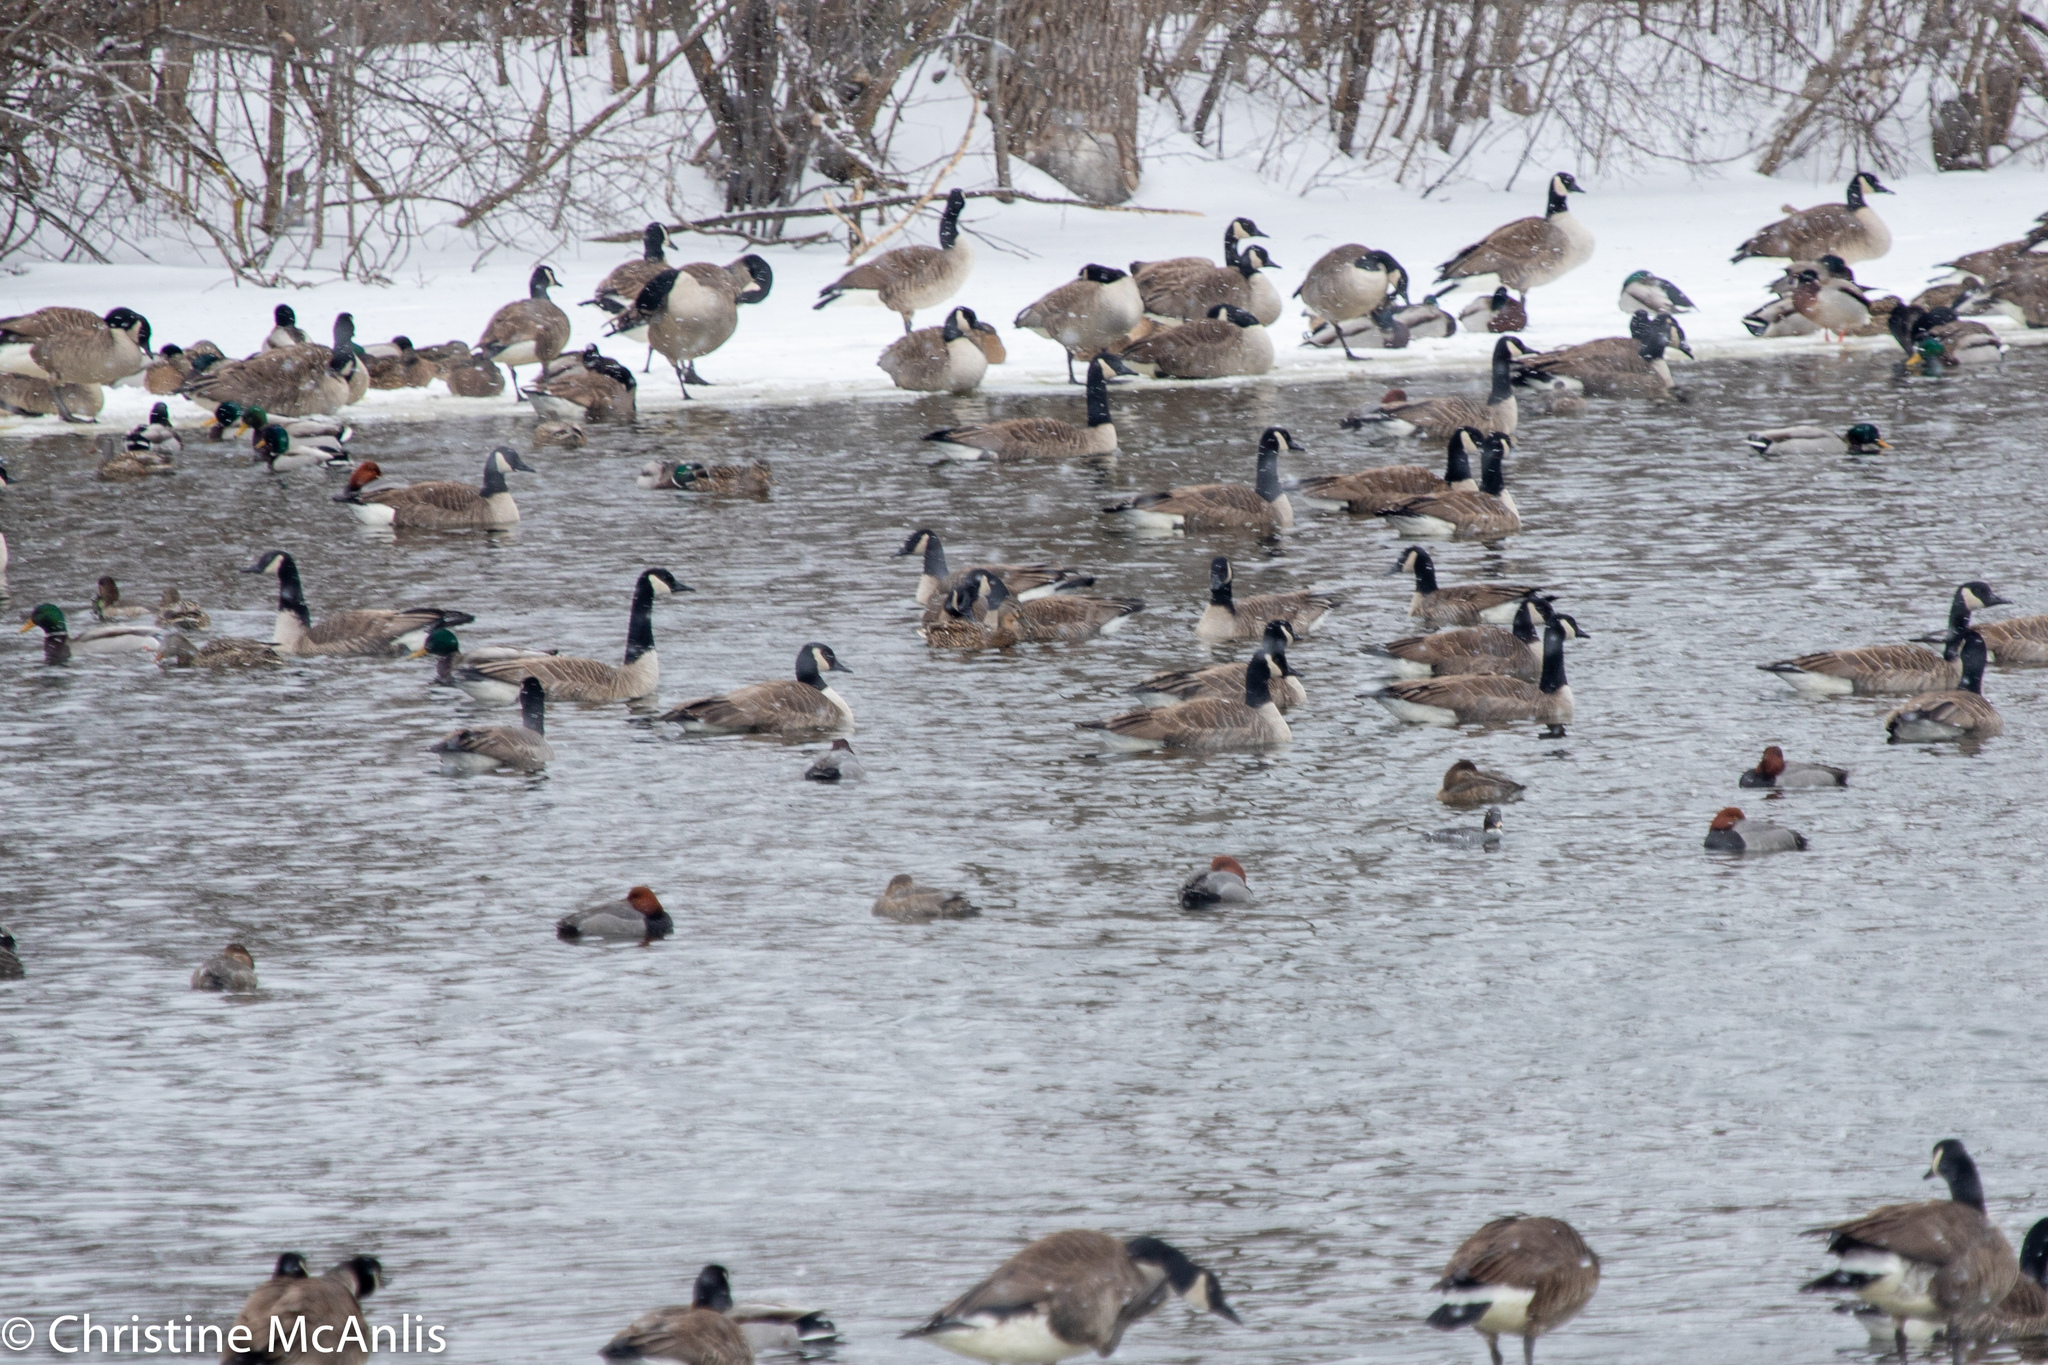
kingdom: Animalia
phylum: Chordata
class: Aves
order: Anseriformes
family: Anatidae
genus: Aythya
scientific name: Aythya americana
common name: Redhead
